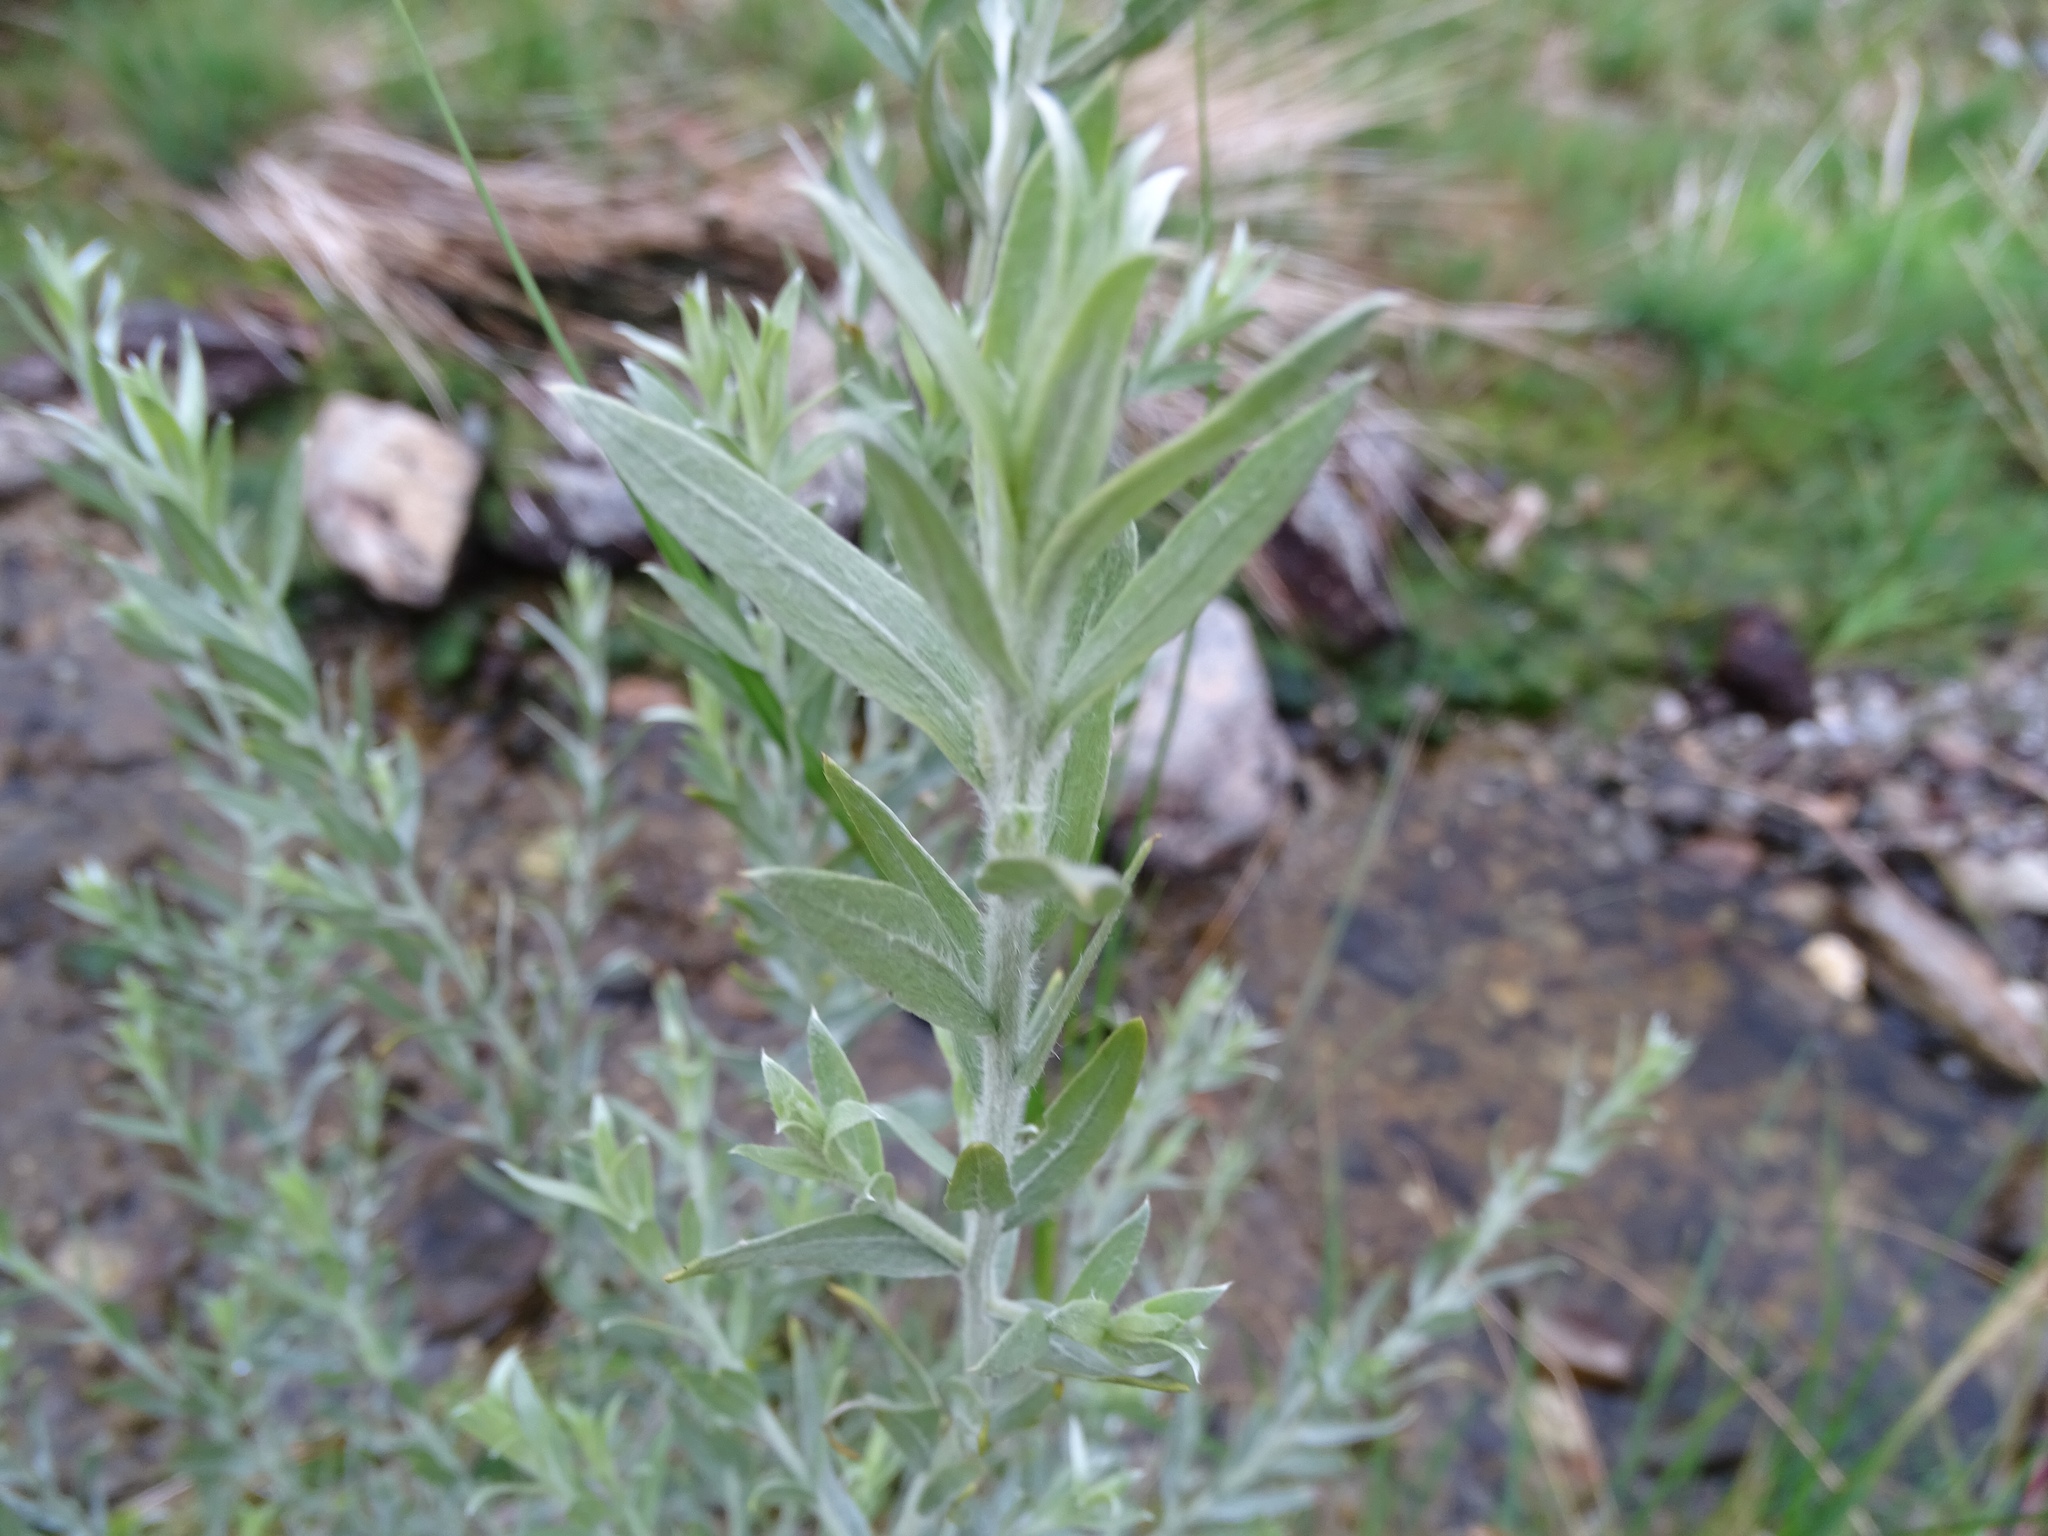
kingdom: Plantae
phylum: Tracheophyta
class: Magnoliopsida
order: Asterales
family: Asteraceae
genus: Pluchea
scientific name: Pluchea sericea
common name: Arrow-weed
